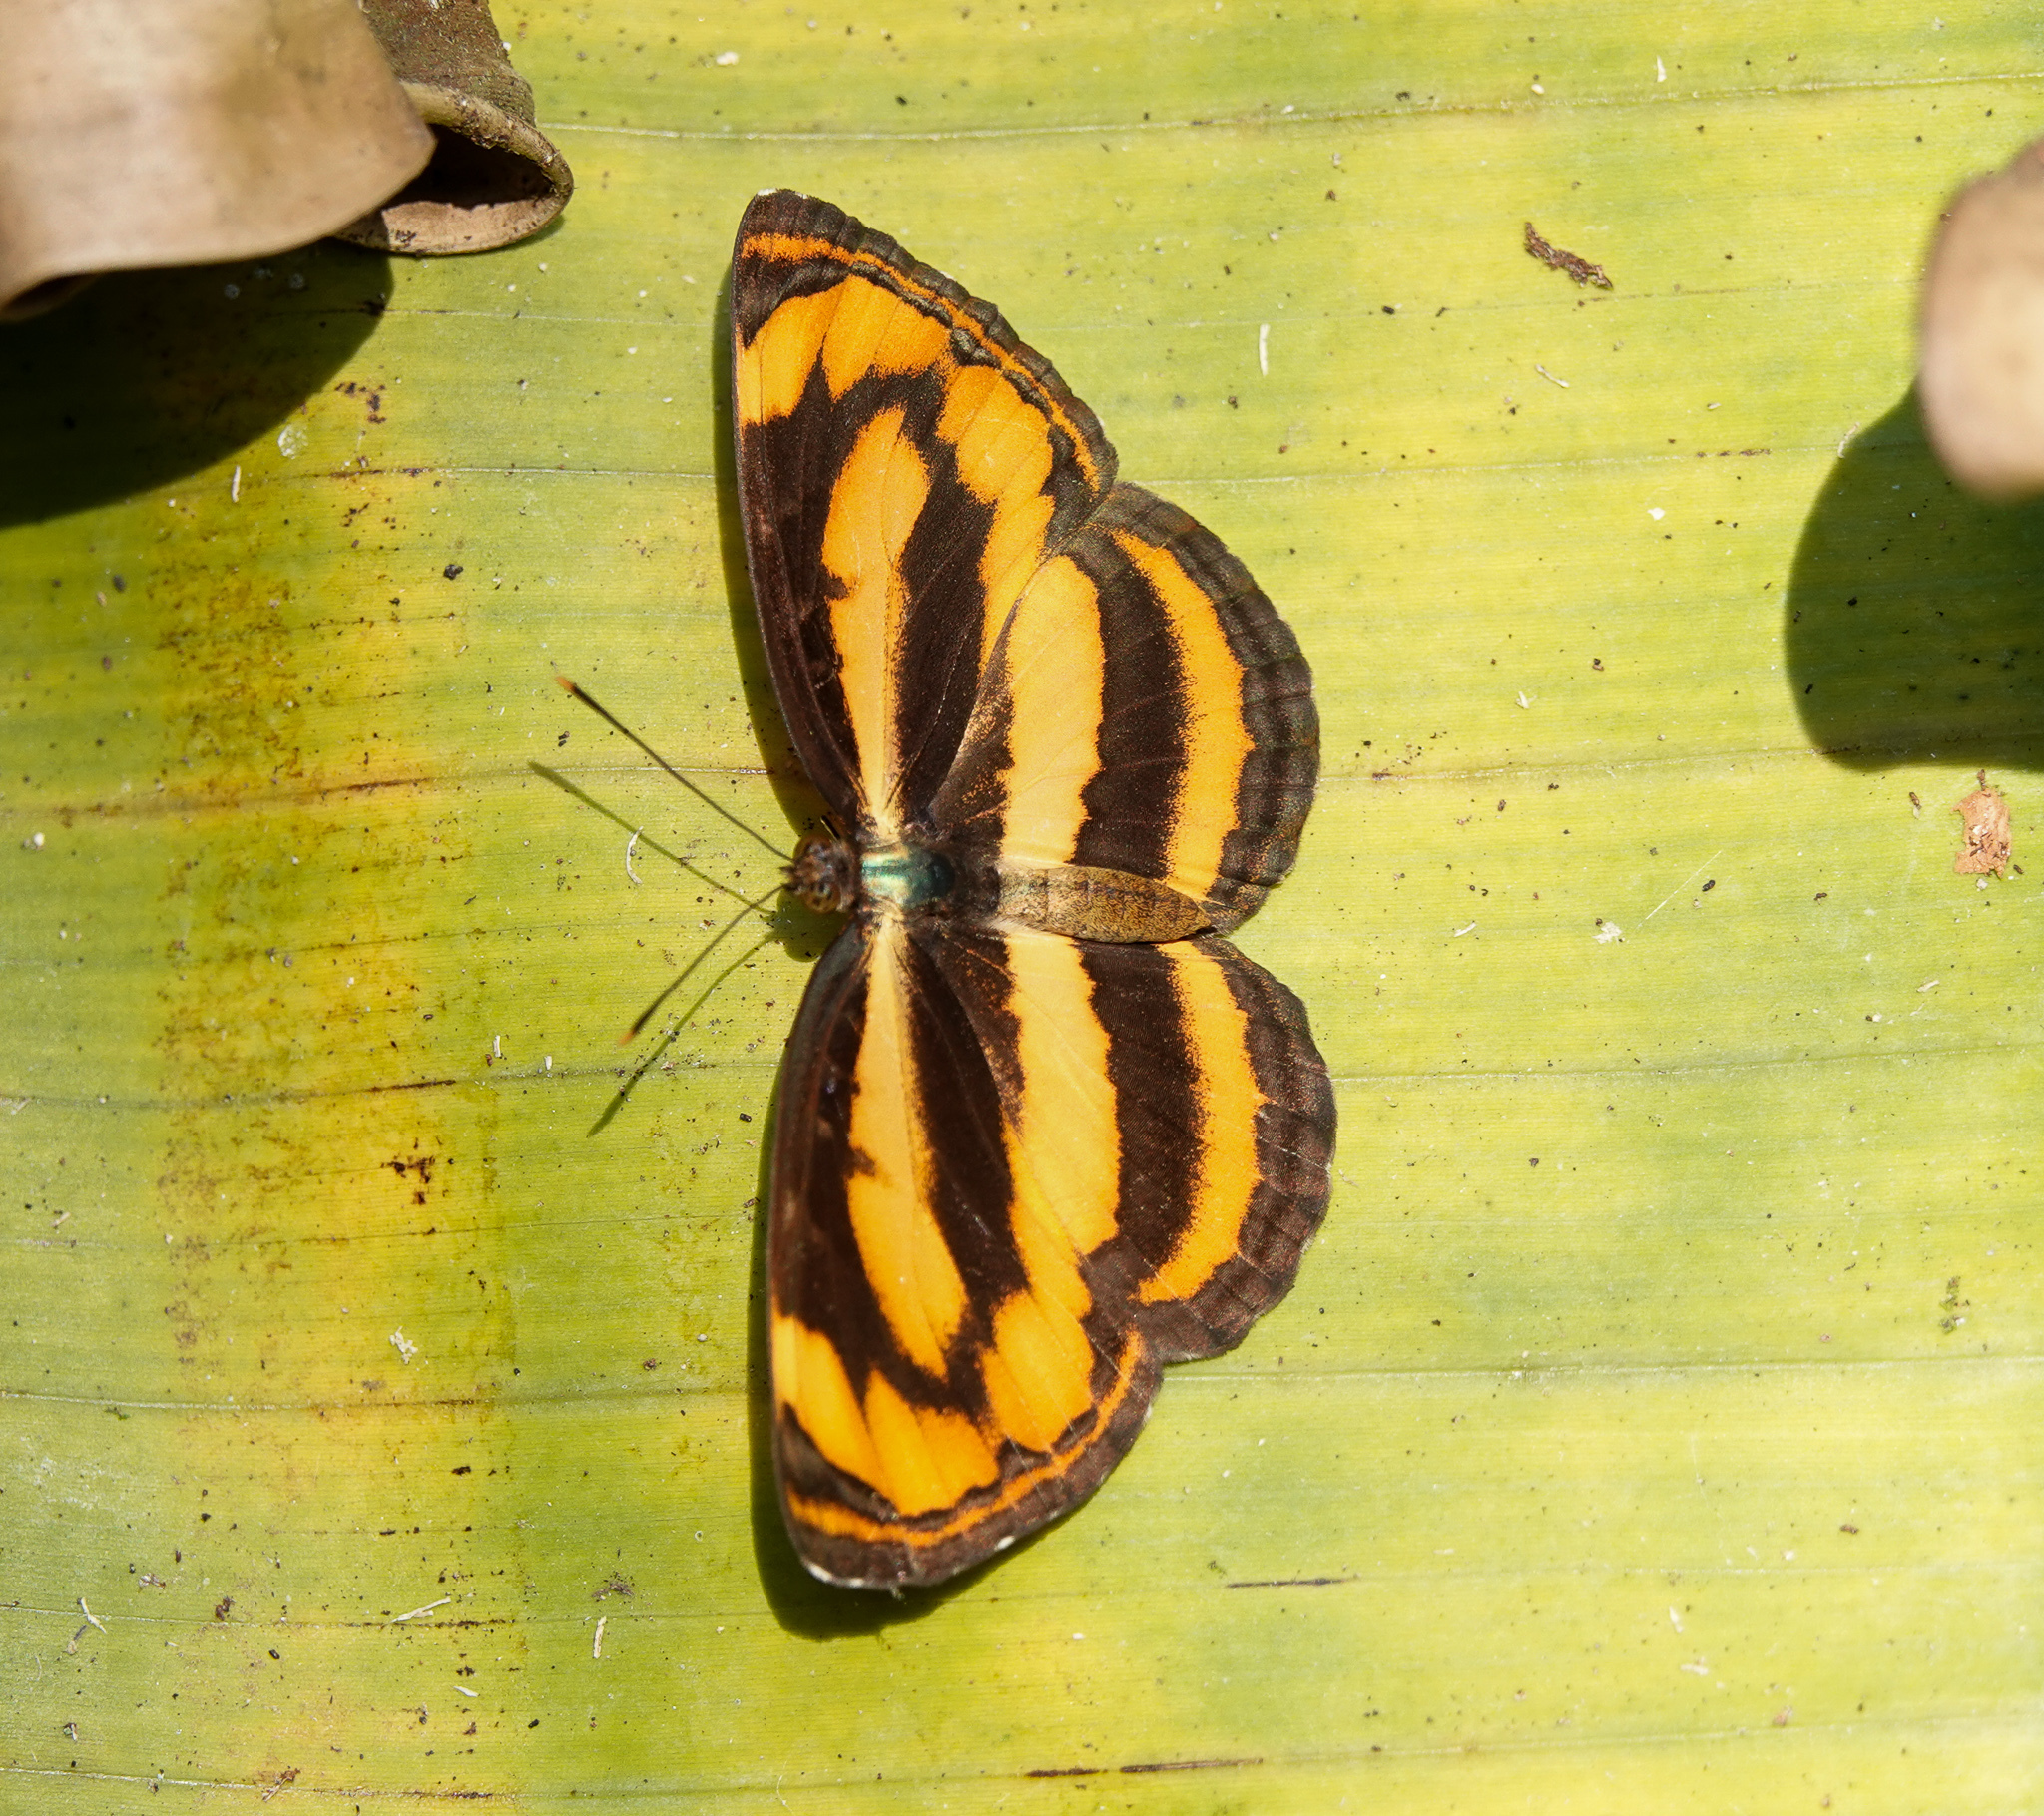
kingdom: Animalia
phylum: Arthropoda
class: Insecta
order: Lepidoptera
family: Nymphalidae
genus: Pantoporia
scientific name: Pantoporia hordonia
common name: Common lascar
